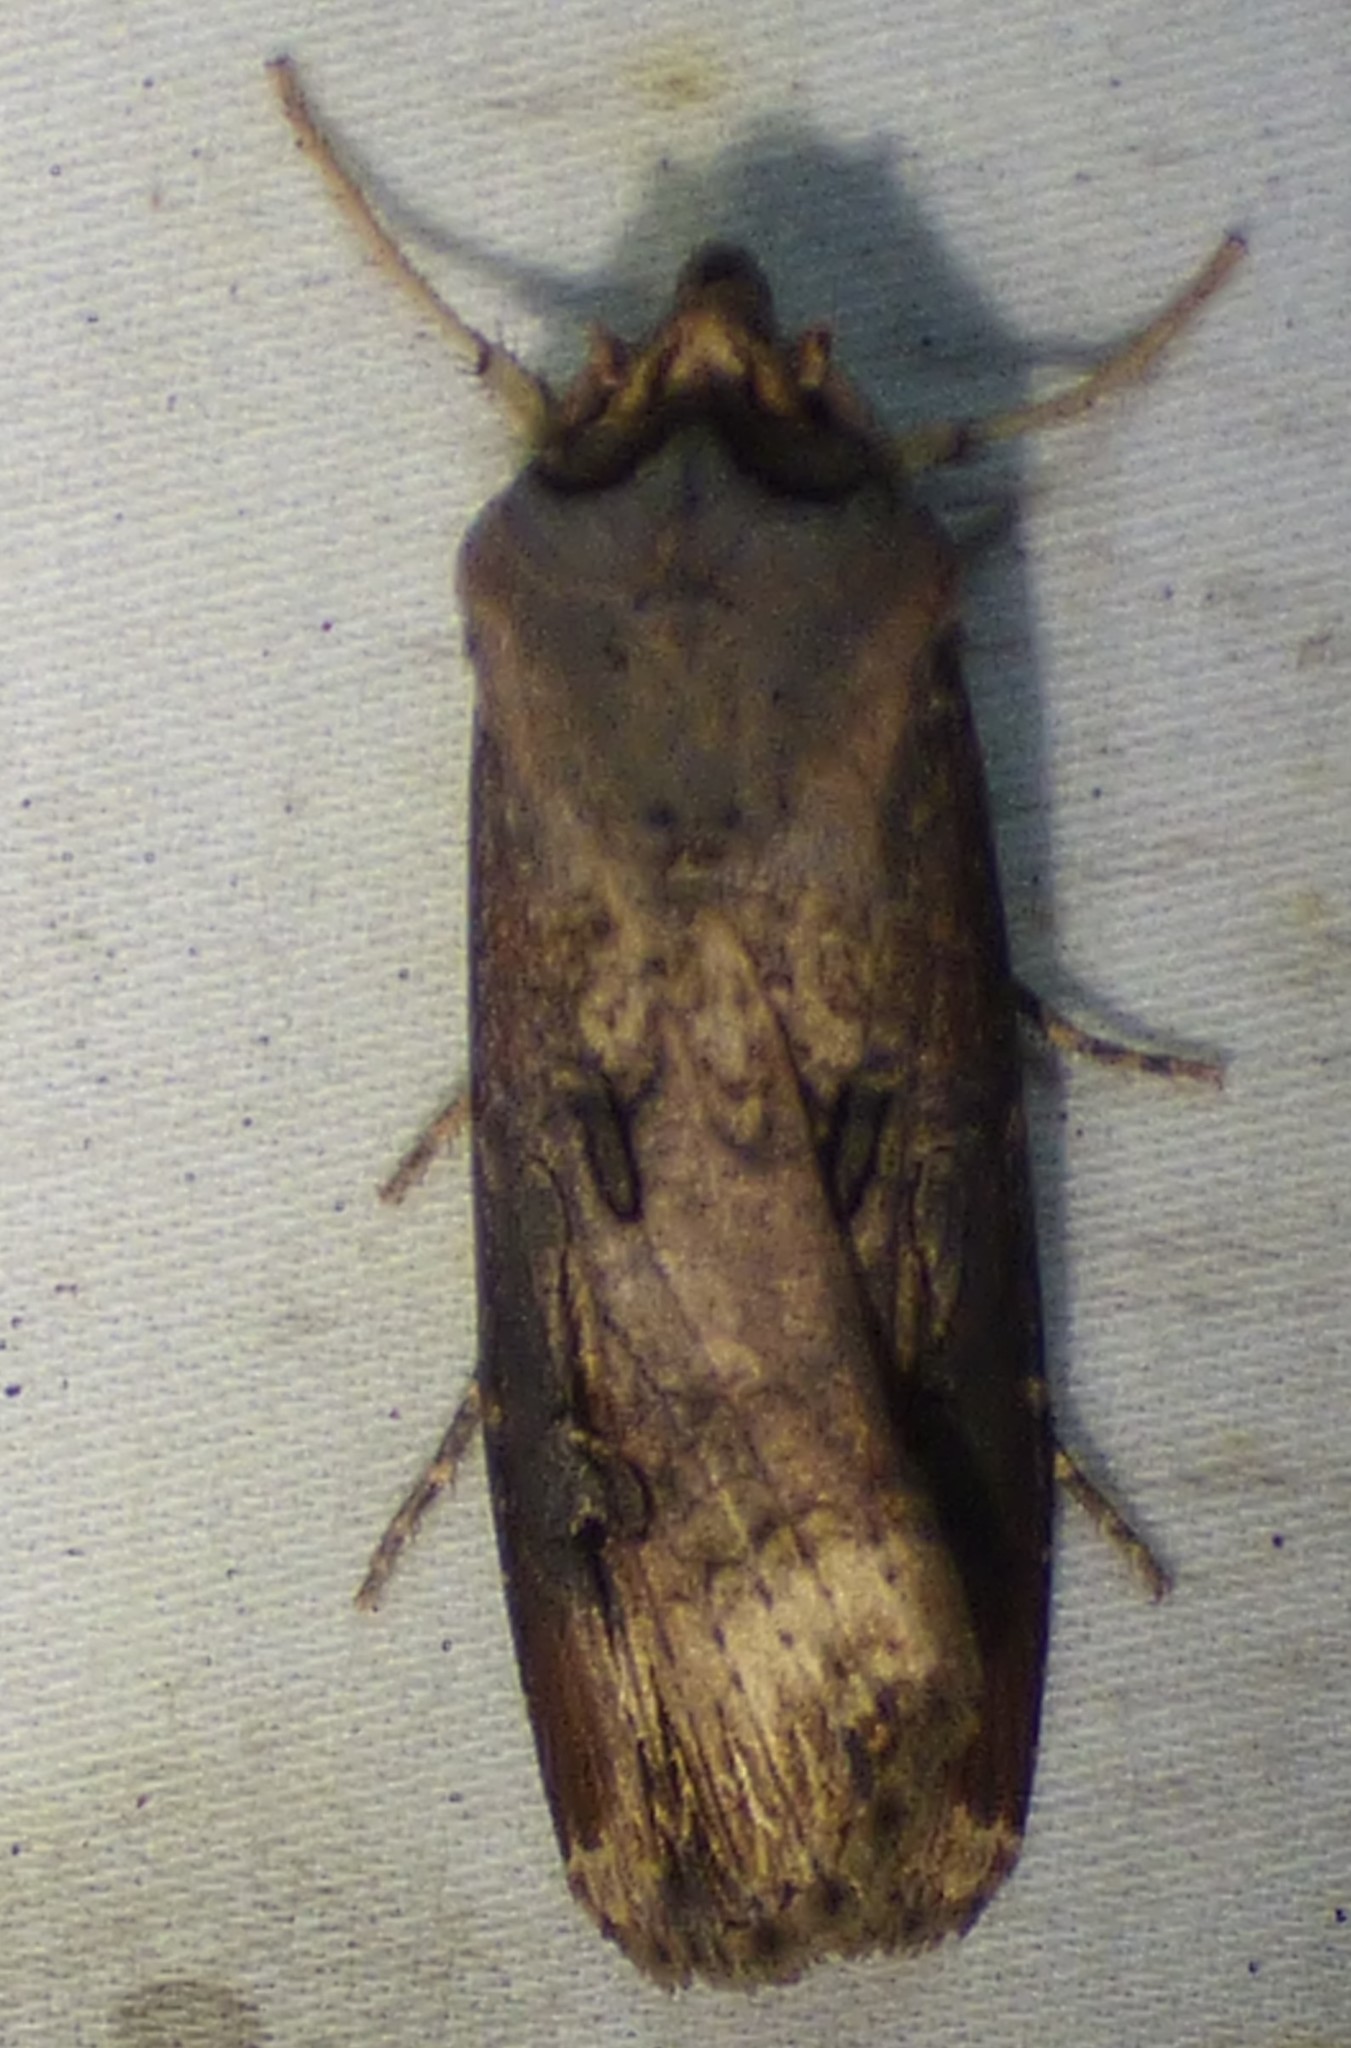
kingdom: Animalia
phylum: Arthropoda
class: Insecta
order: Lepidoptera
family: Noctuidae
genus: Agrotis
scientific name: Agrotis ipsilon
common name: Dark sword-grass
